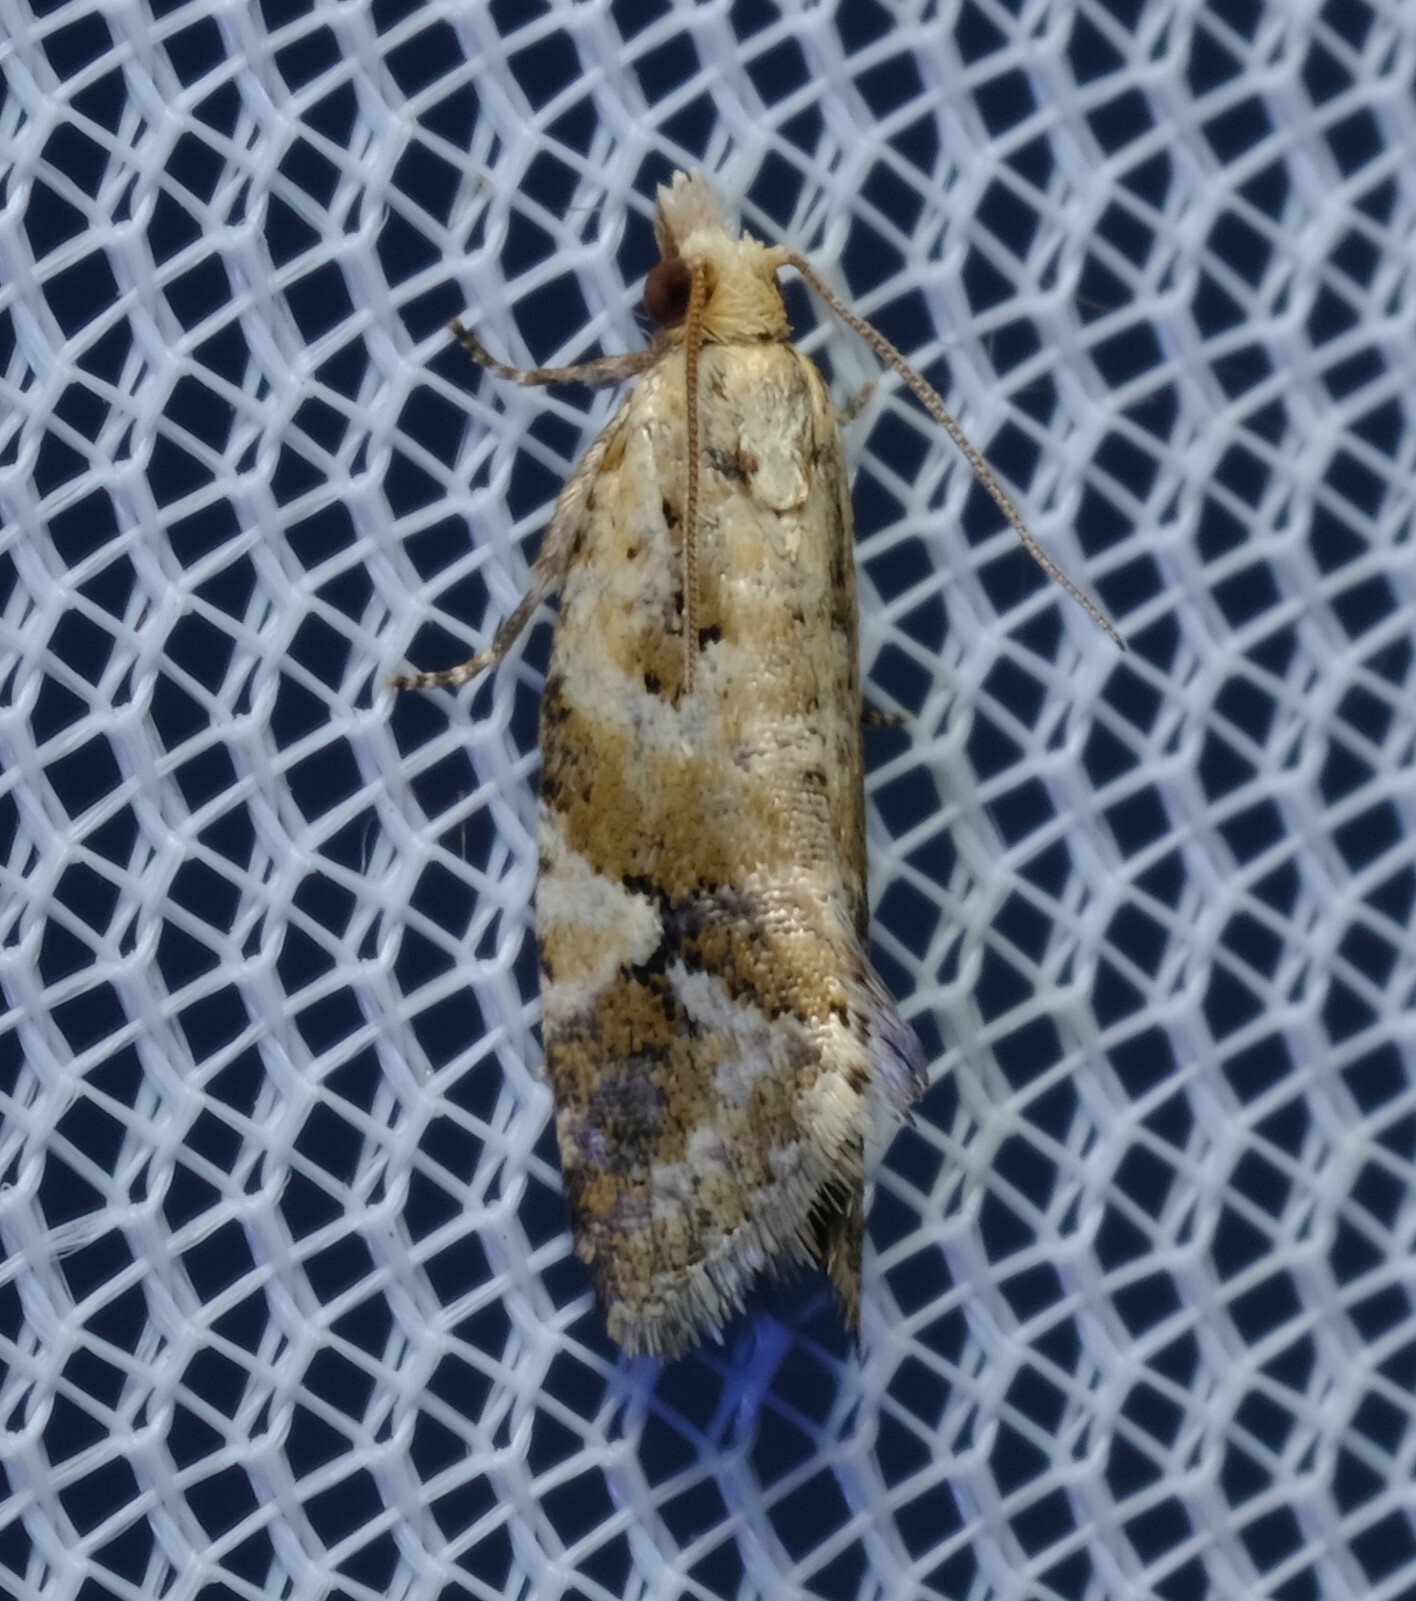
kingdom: Animalia
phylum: Arthropoda
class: Insecta
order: Lepidoptera
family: Tortricidae
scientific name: Tortricidae
